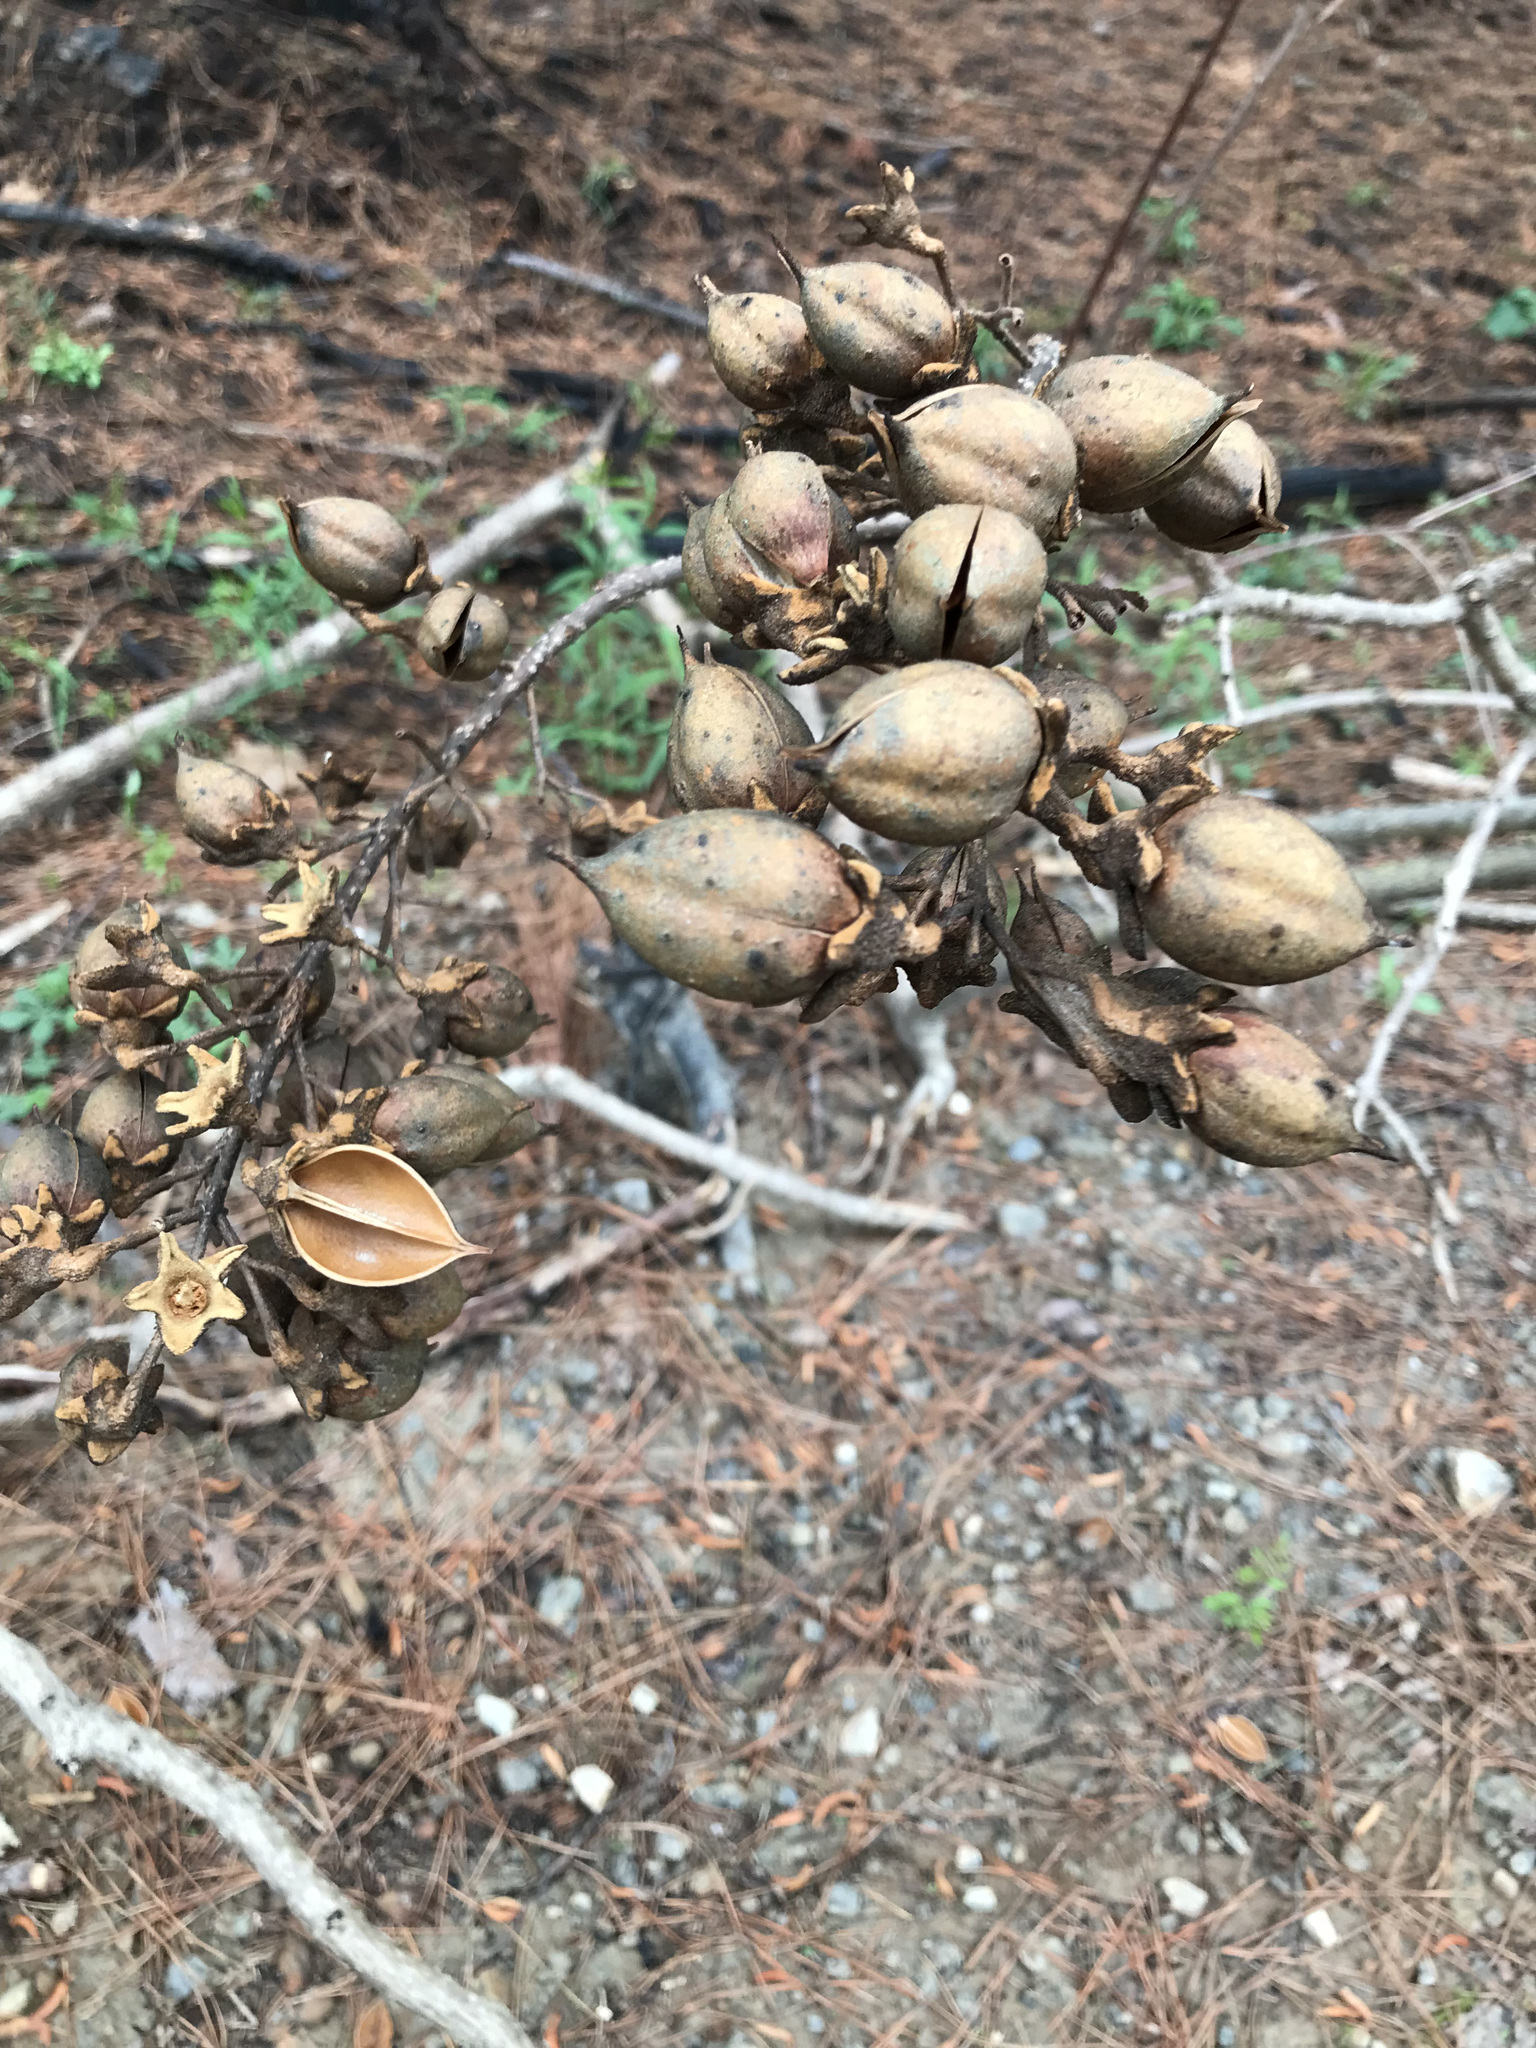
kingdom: Plantae
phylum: Tracheophyta
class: Magnoliopsida
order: Lamiales
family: Paulowniaceae
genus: Paulownia
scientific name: Paulownia tomentosa
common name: Foxglove-tree
